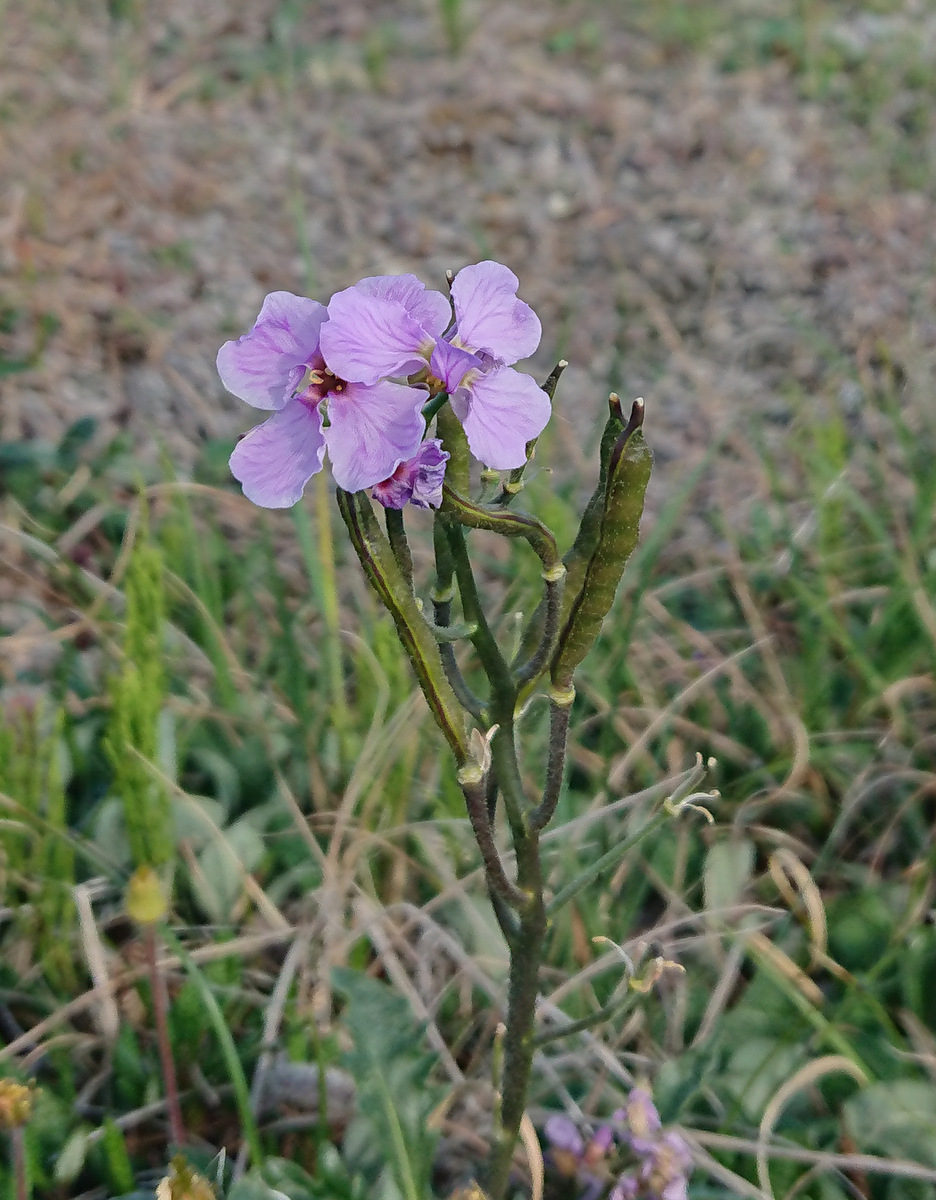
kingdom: Plantae
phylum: Tracheophyta
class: Magnoliopsida
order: Brassicales
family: Brassicaceae
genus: Parrya
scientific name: Parrya nudicaulis
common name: Naked-stemmed false wallflower
